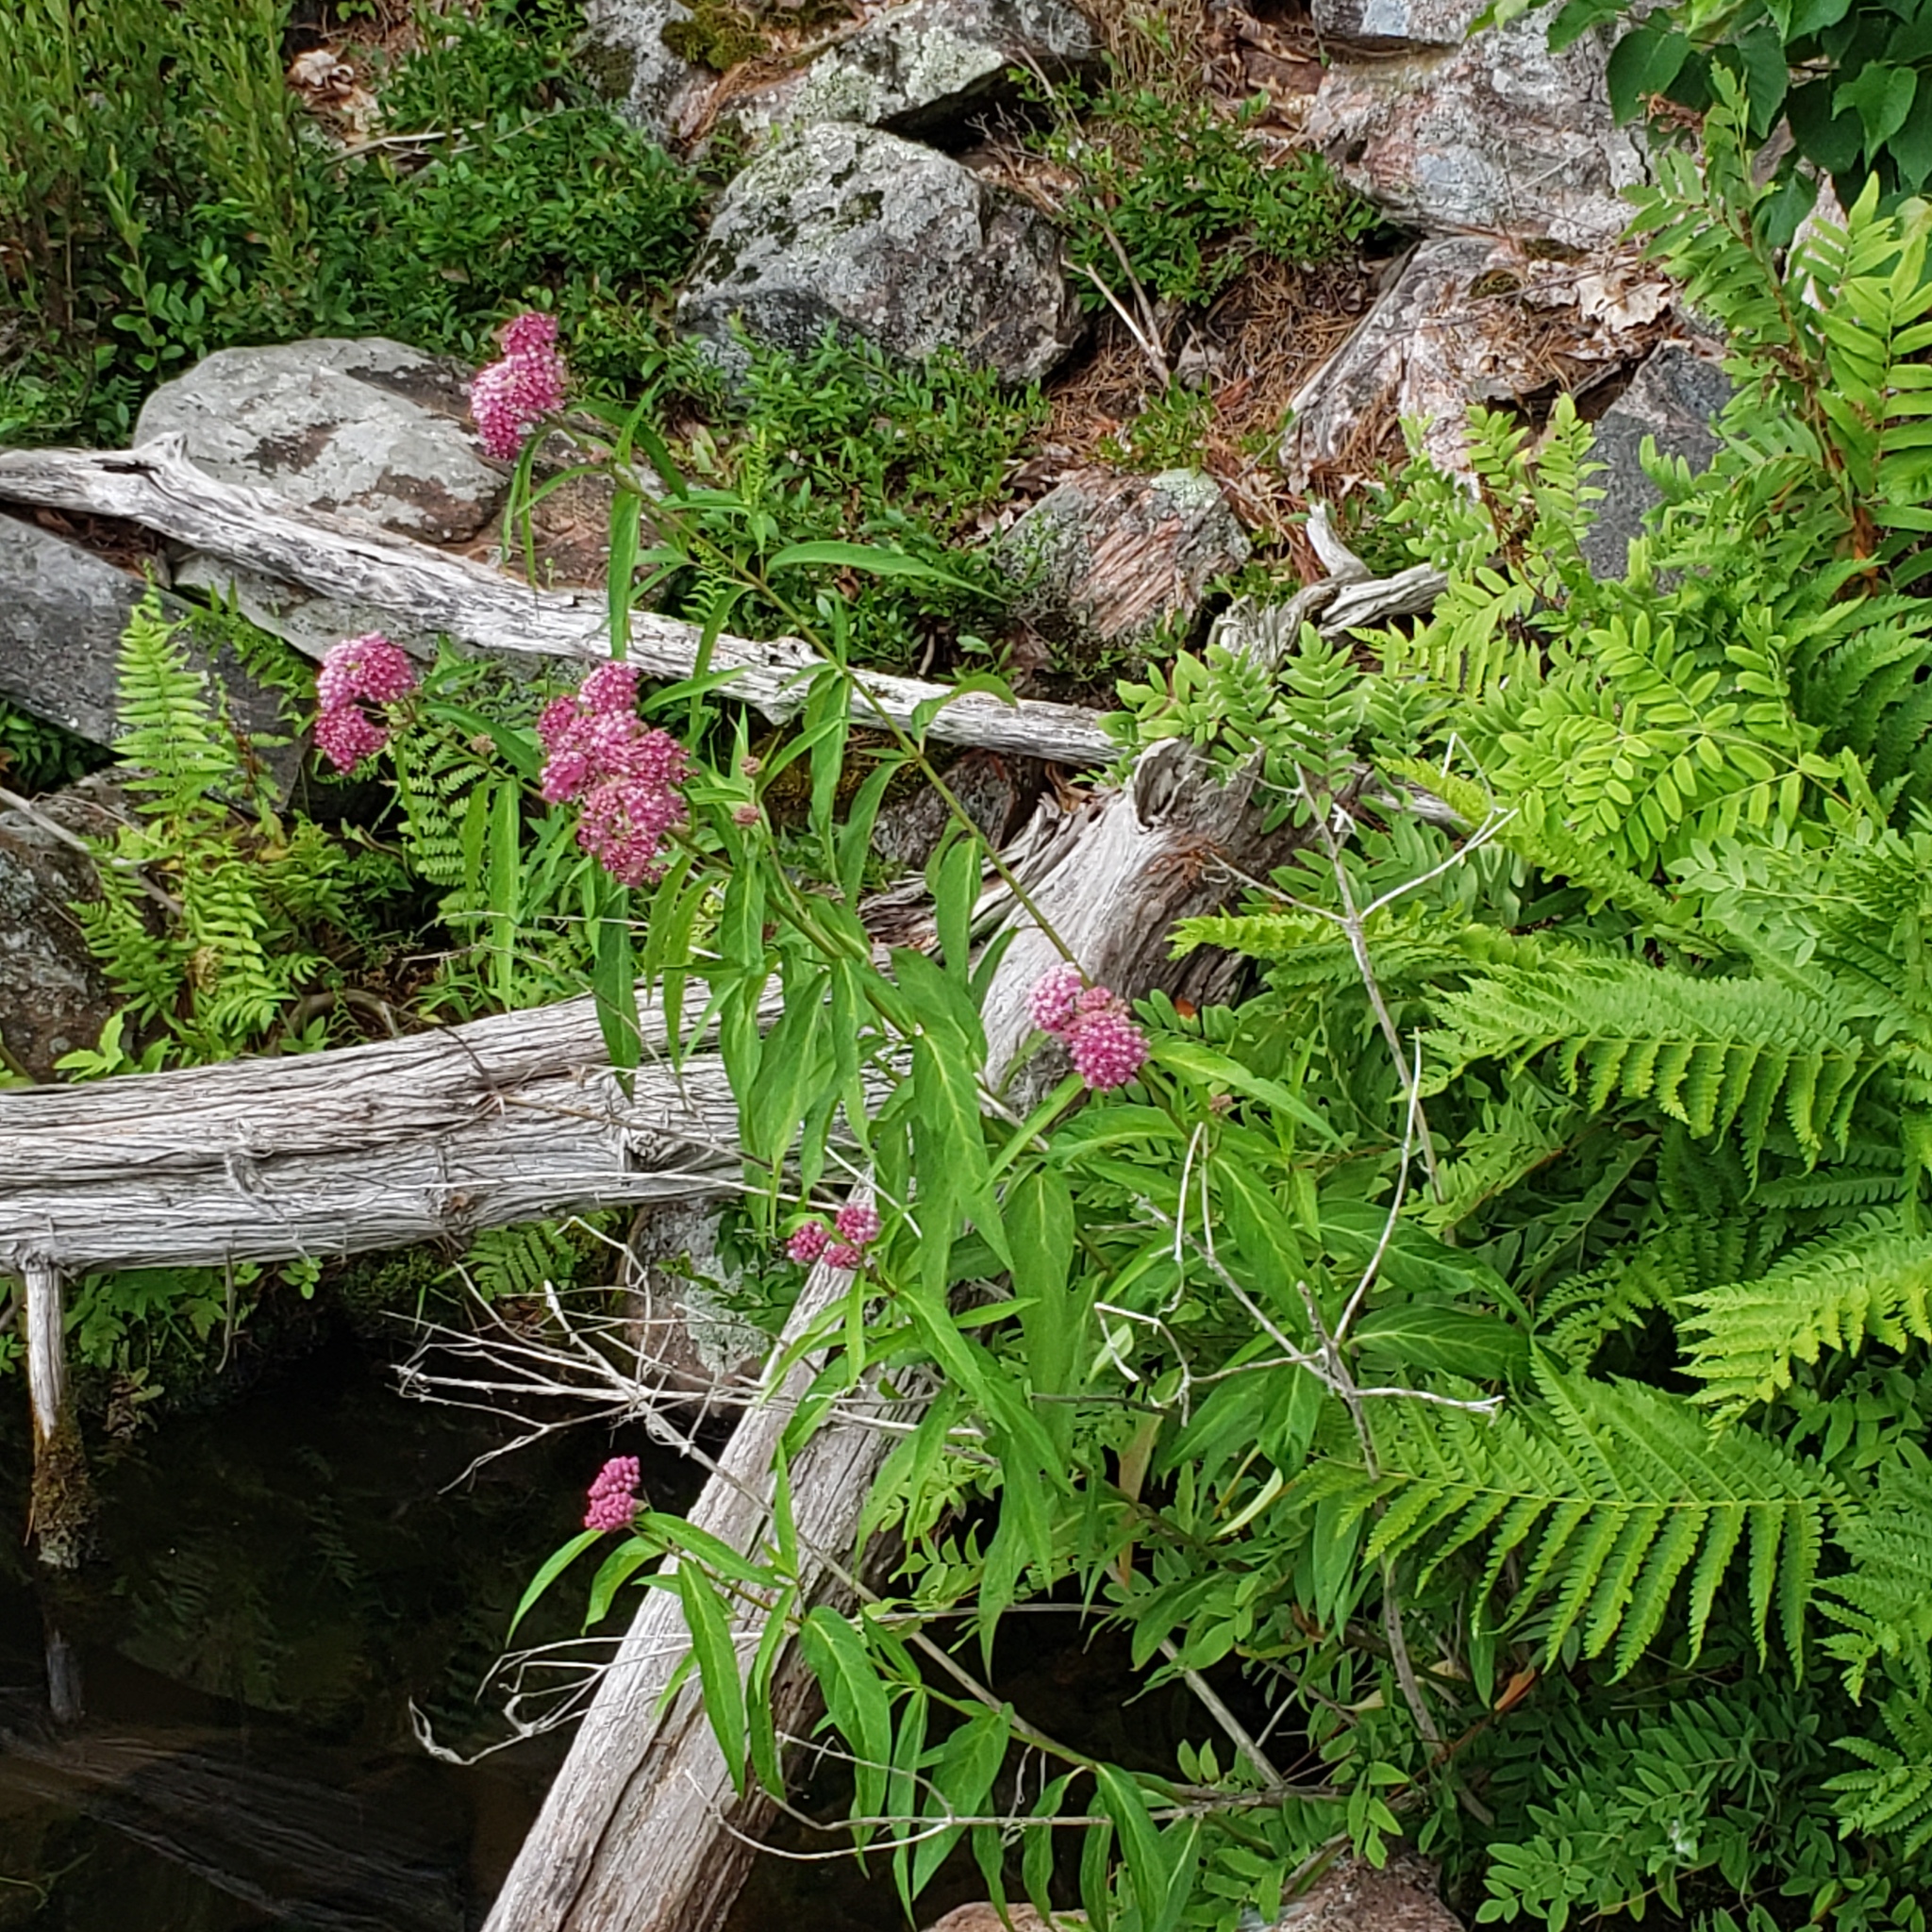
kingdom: Plantae
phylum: Tracheophyta
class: Magnoliopsida
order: Gentianales
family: Apocynaceae
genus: Asclepias
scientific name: Asclepias incarnata
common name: Swamp milkweed
